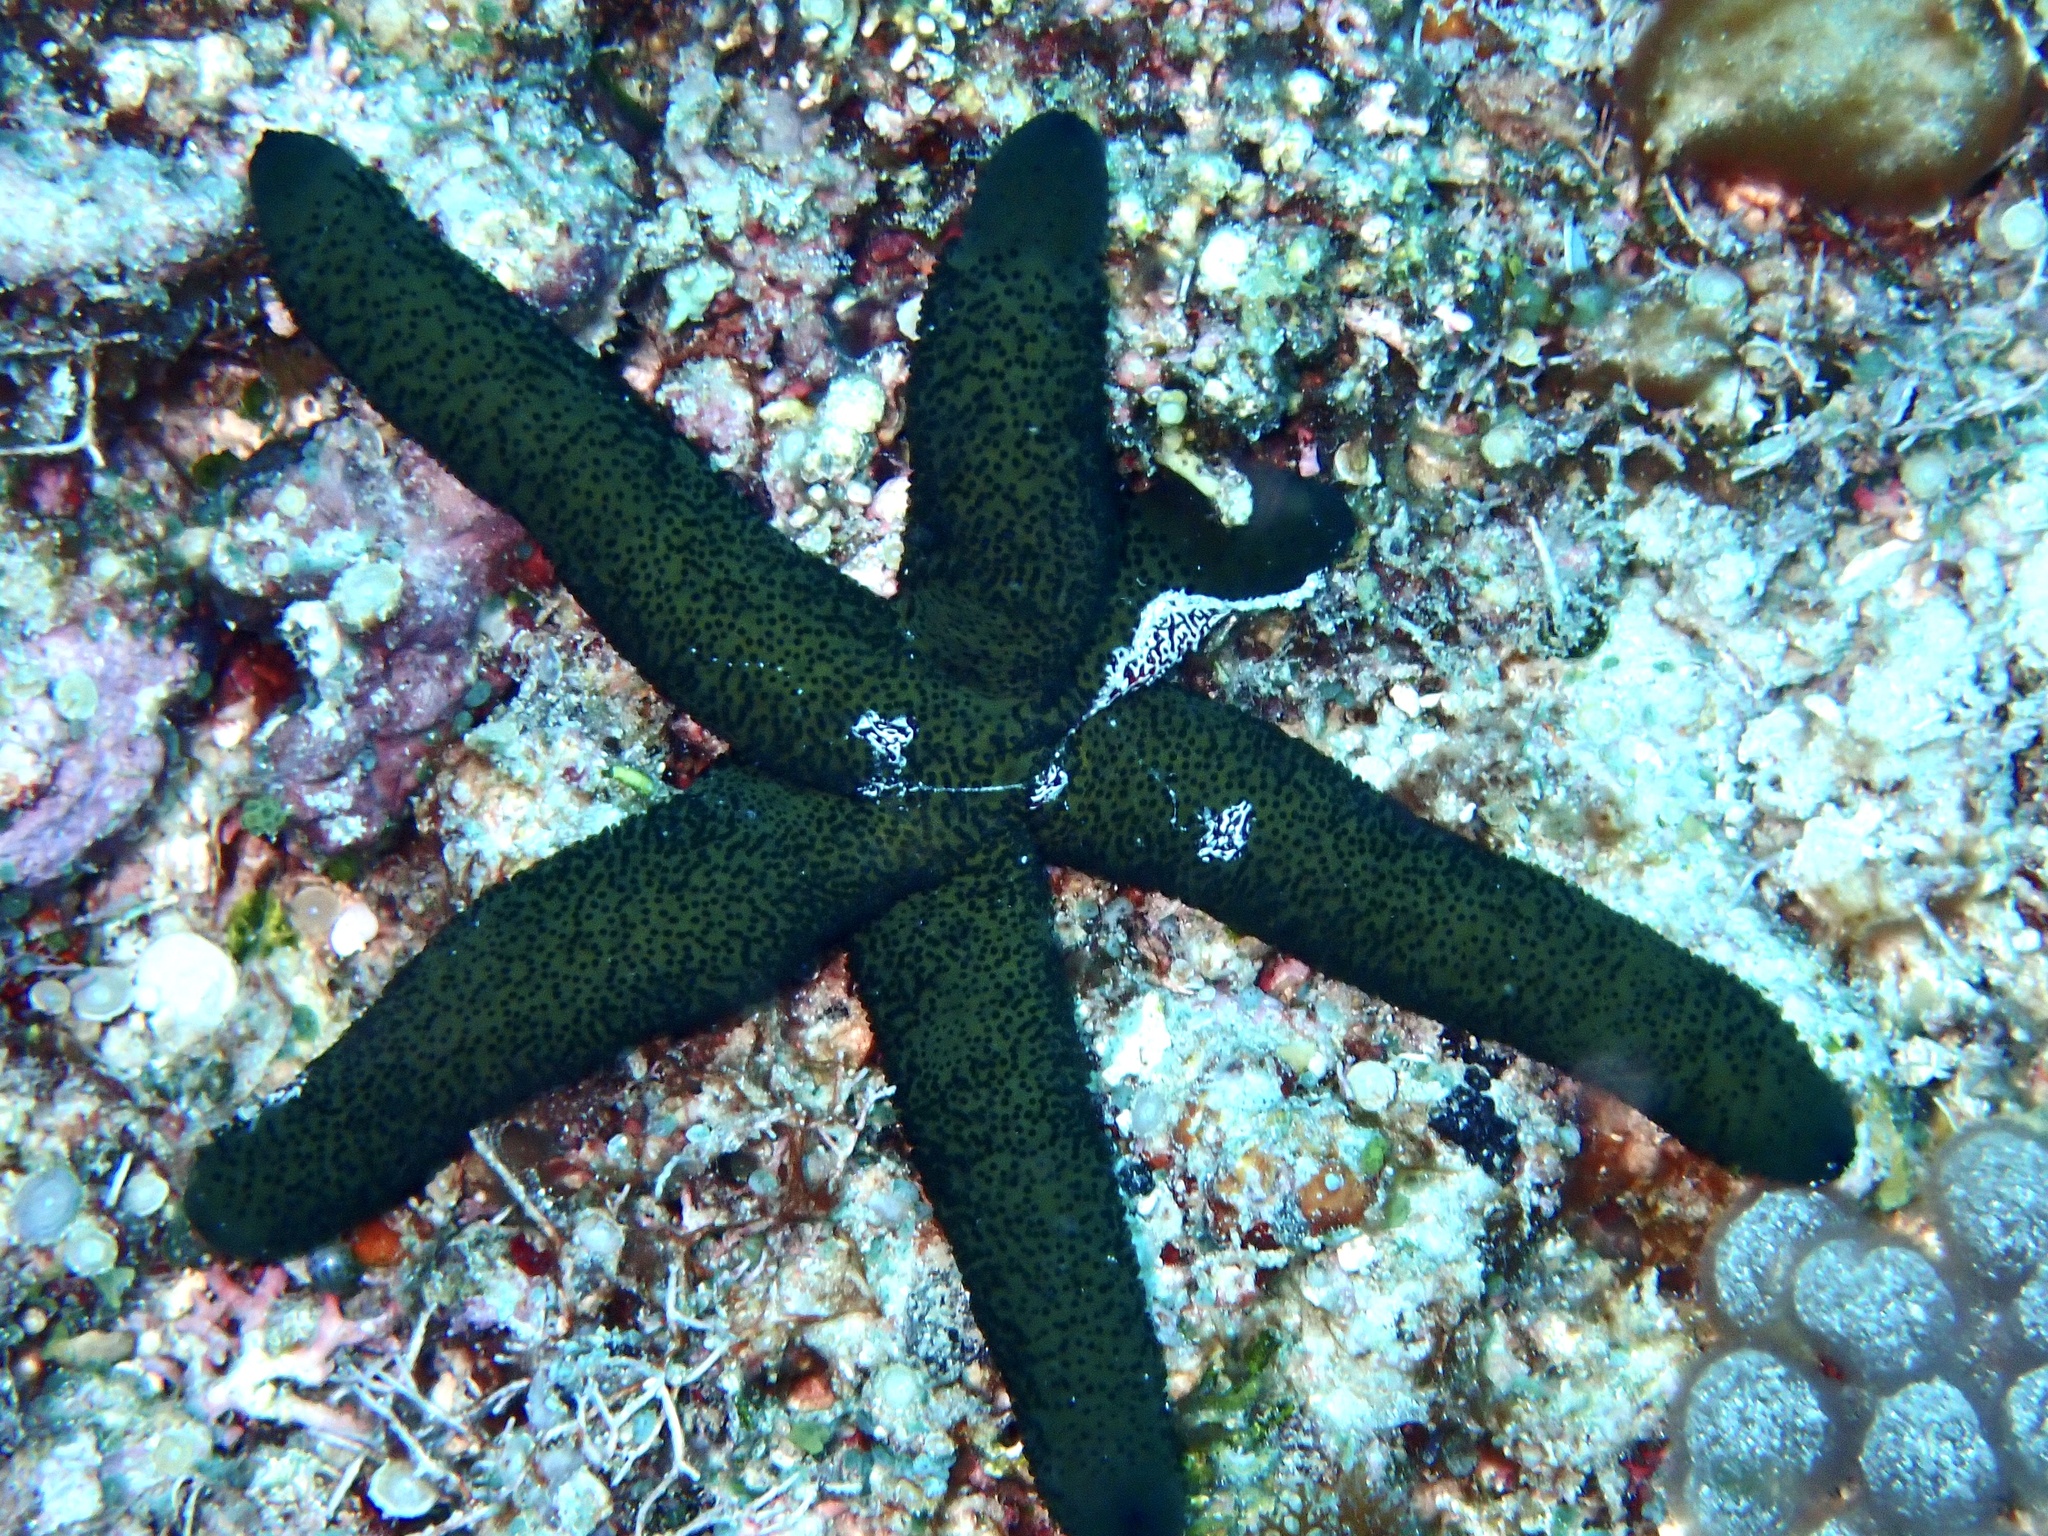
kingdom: Animalia
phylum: Echinodermata
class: Asteroidea
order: Spinulosida
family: Echinasteridae
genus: Echinaster
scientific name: Echinaster luzonicus
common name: Luzon seastar
